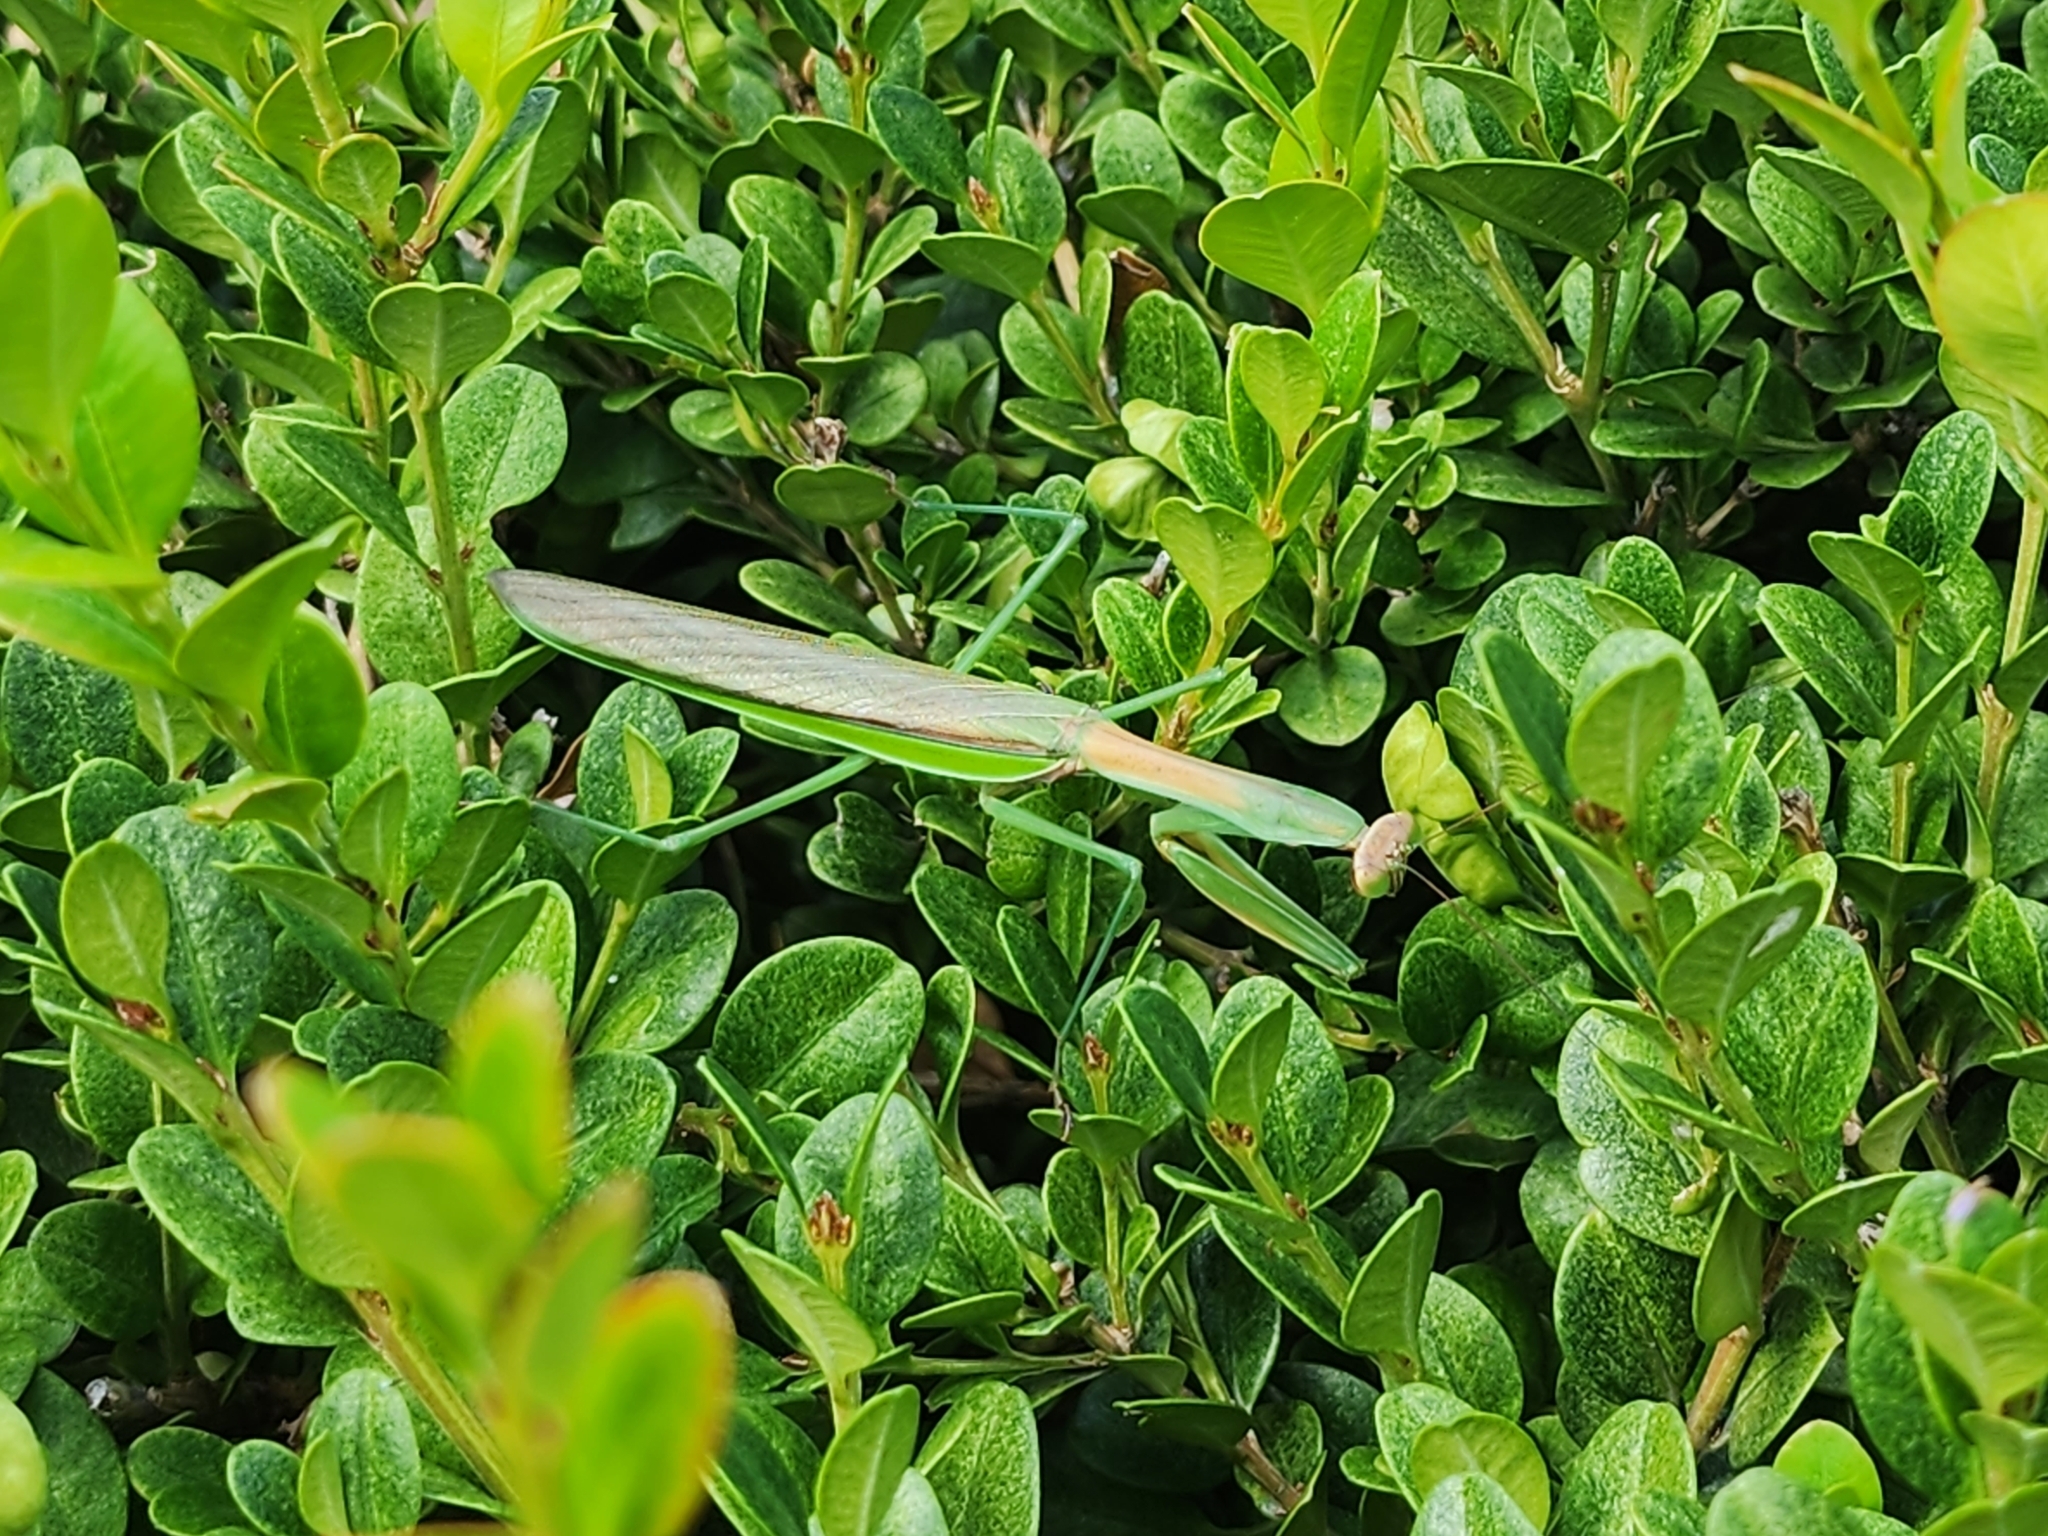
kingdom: Animalia
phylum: Arthropoda
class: Insecta
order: Mantodea
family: Mantidae
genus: Tenodera
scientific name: Tenodera sinensis
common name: Chinese mantis
